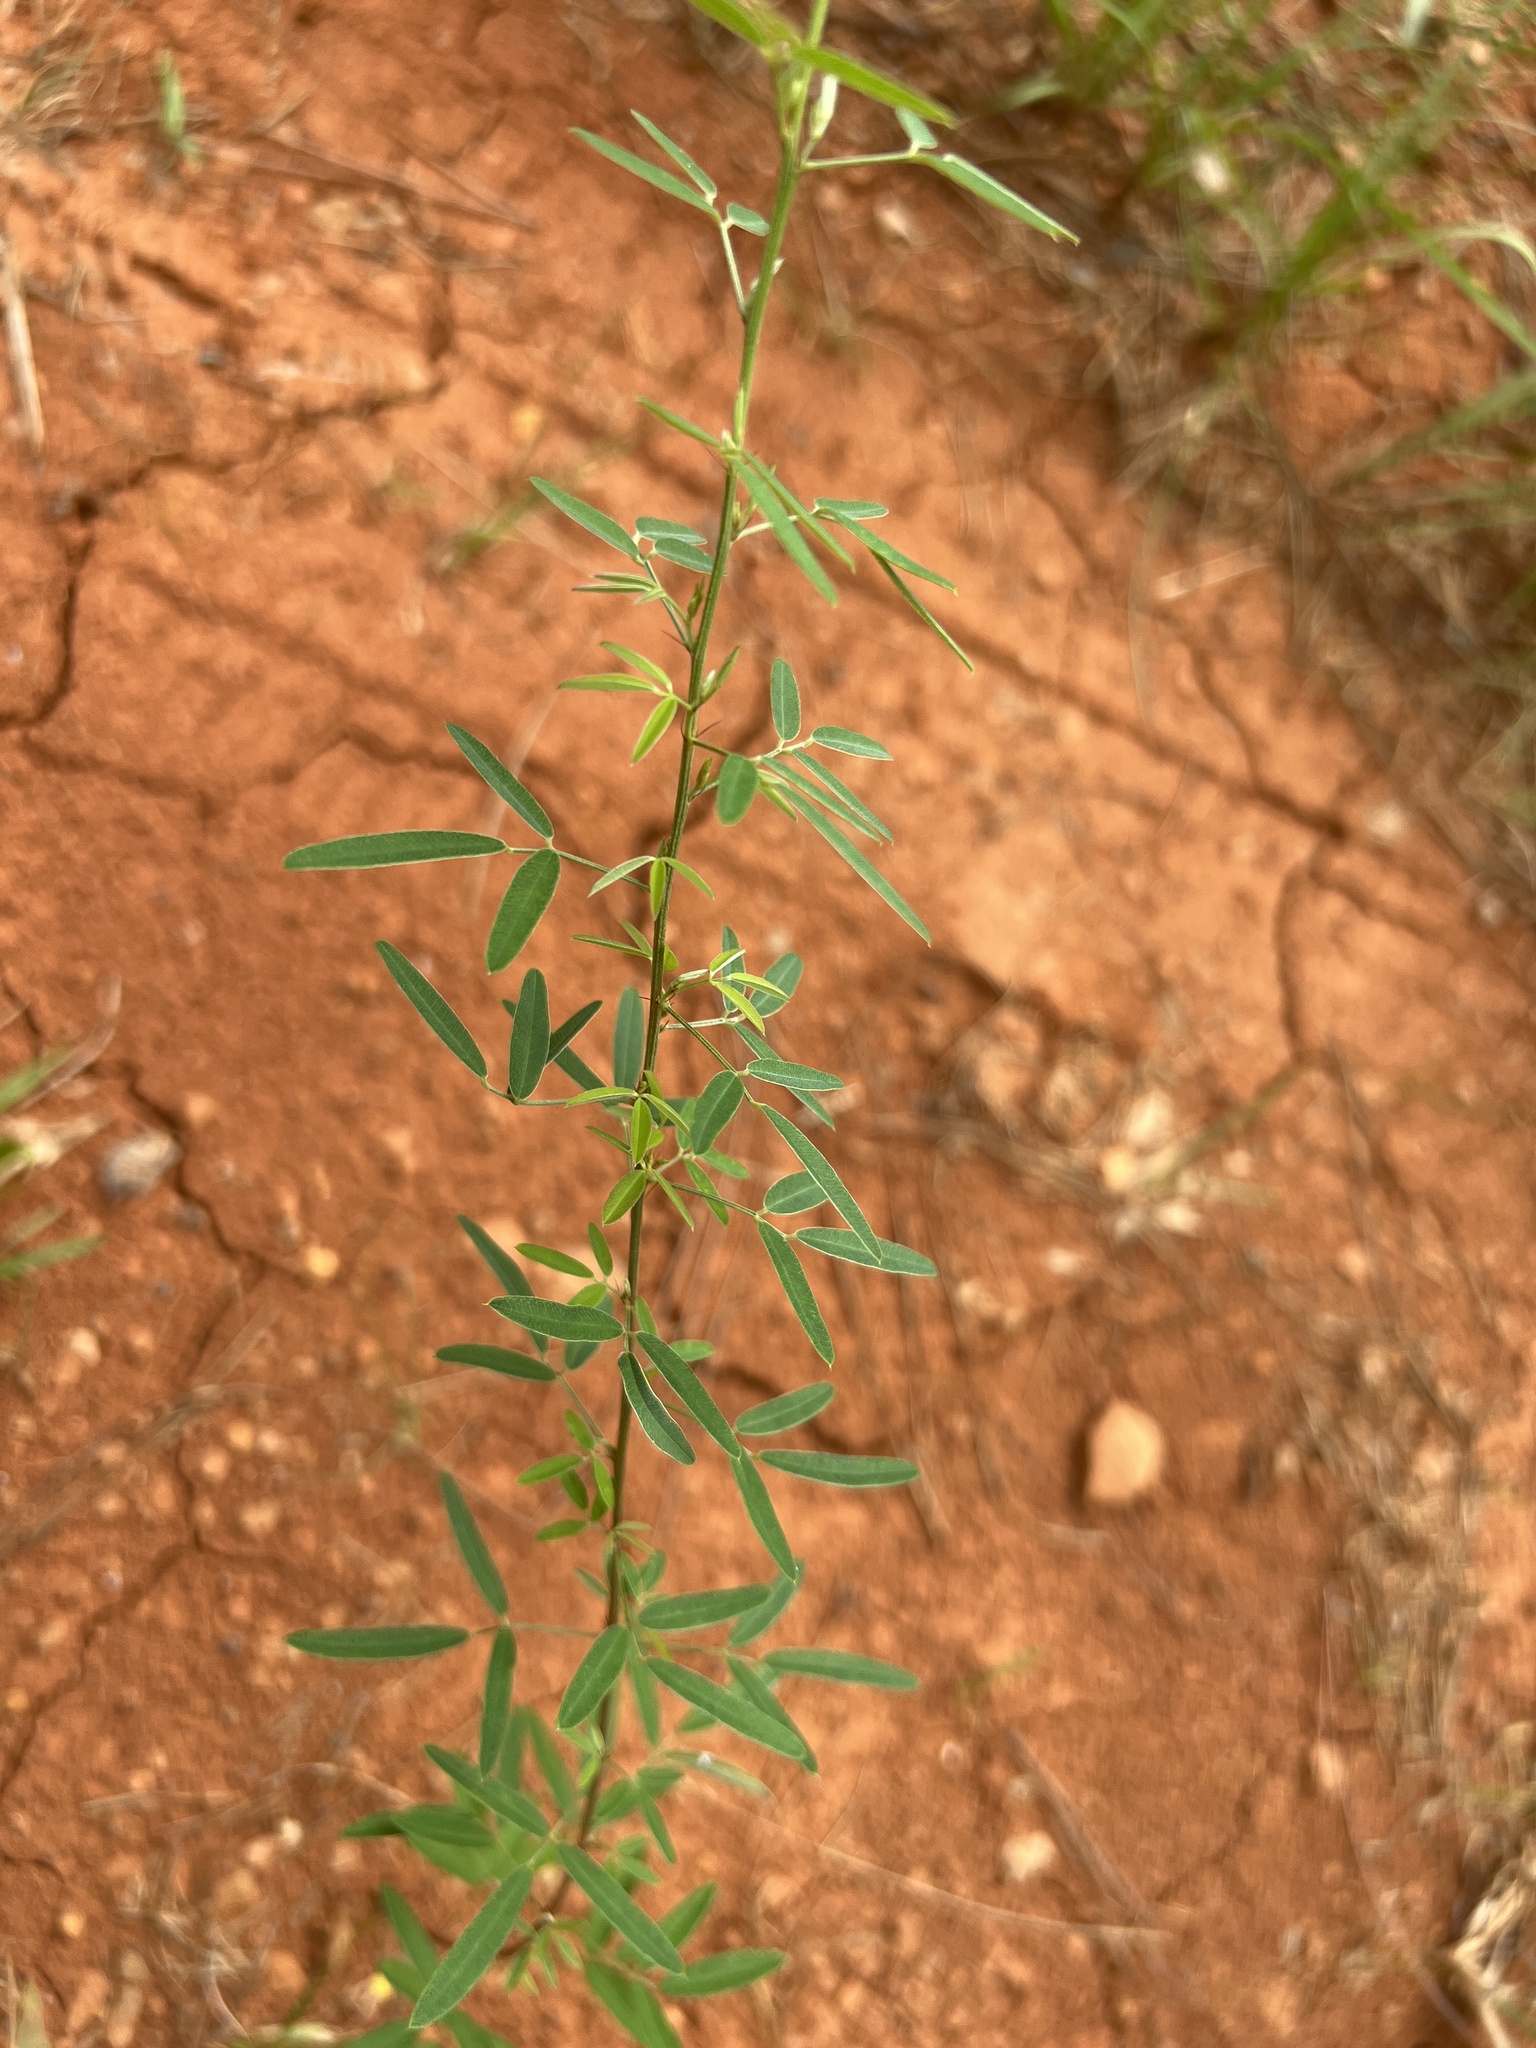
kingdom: Plantae
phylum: Tracheophyta
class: Magnoliopsida
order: Fabales
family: Fabaceae
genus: Lespedeza
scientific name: Lespedeza virginica
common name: Slender bush-clover
